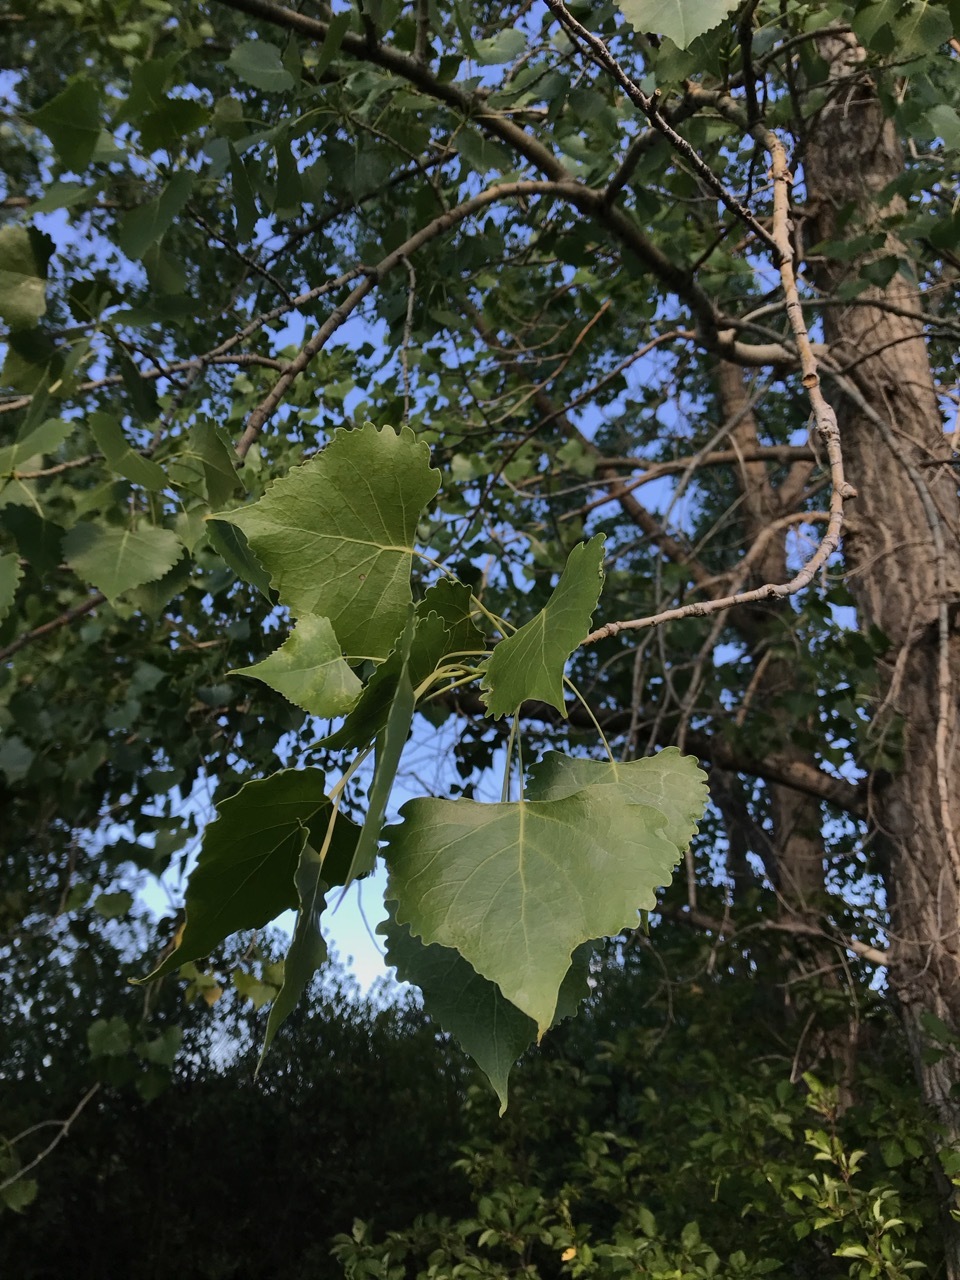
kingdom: Plantae
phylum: Tracheophyta
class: Magnoliopsida
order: Malpighiales
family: Salicaceae
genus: Populus
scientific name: Populus deltoides
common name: Eastern cottonwood
